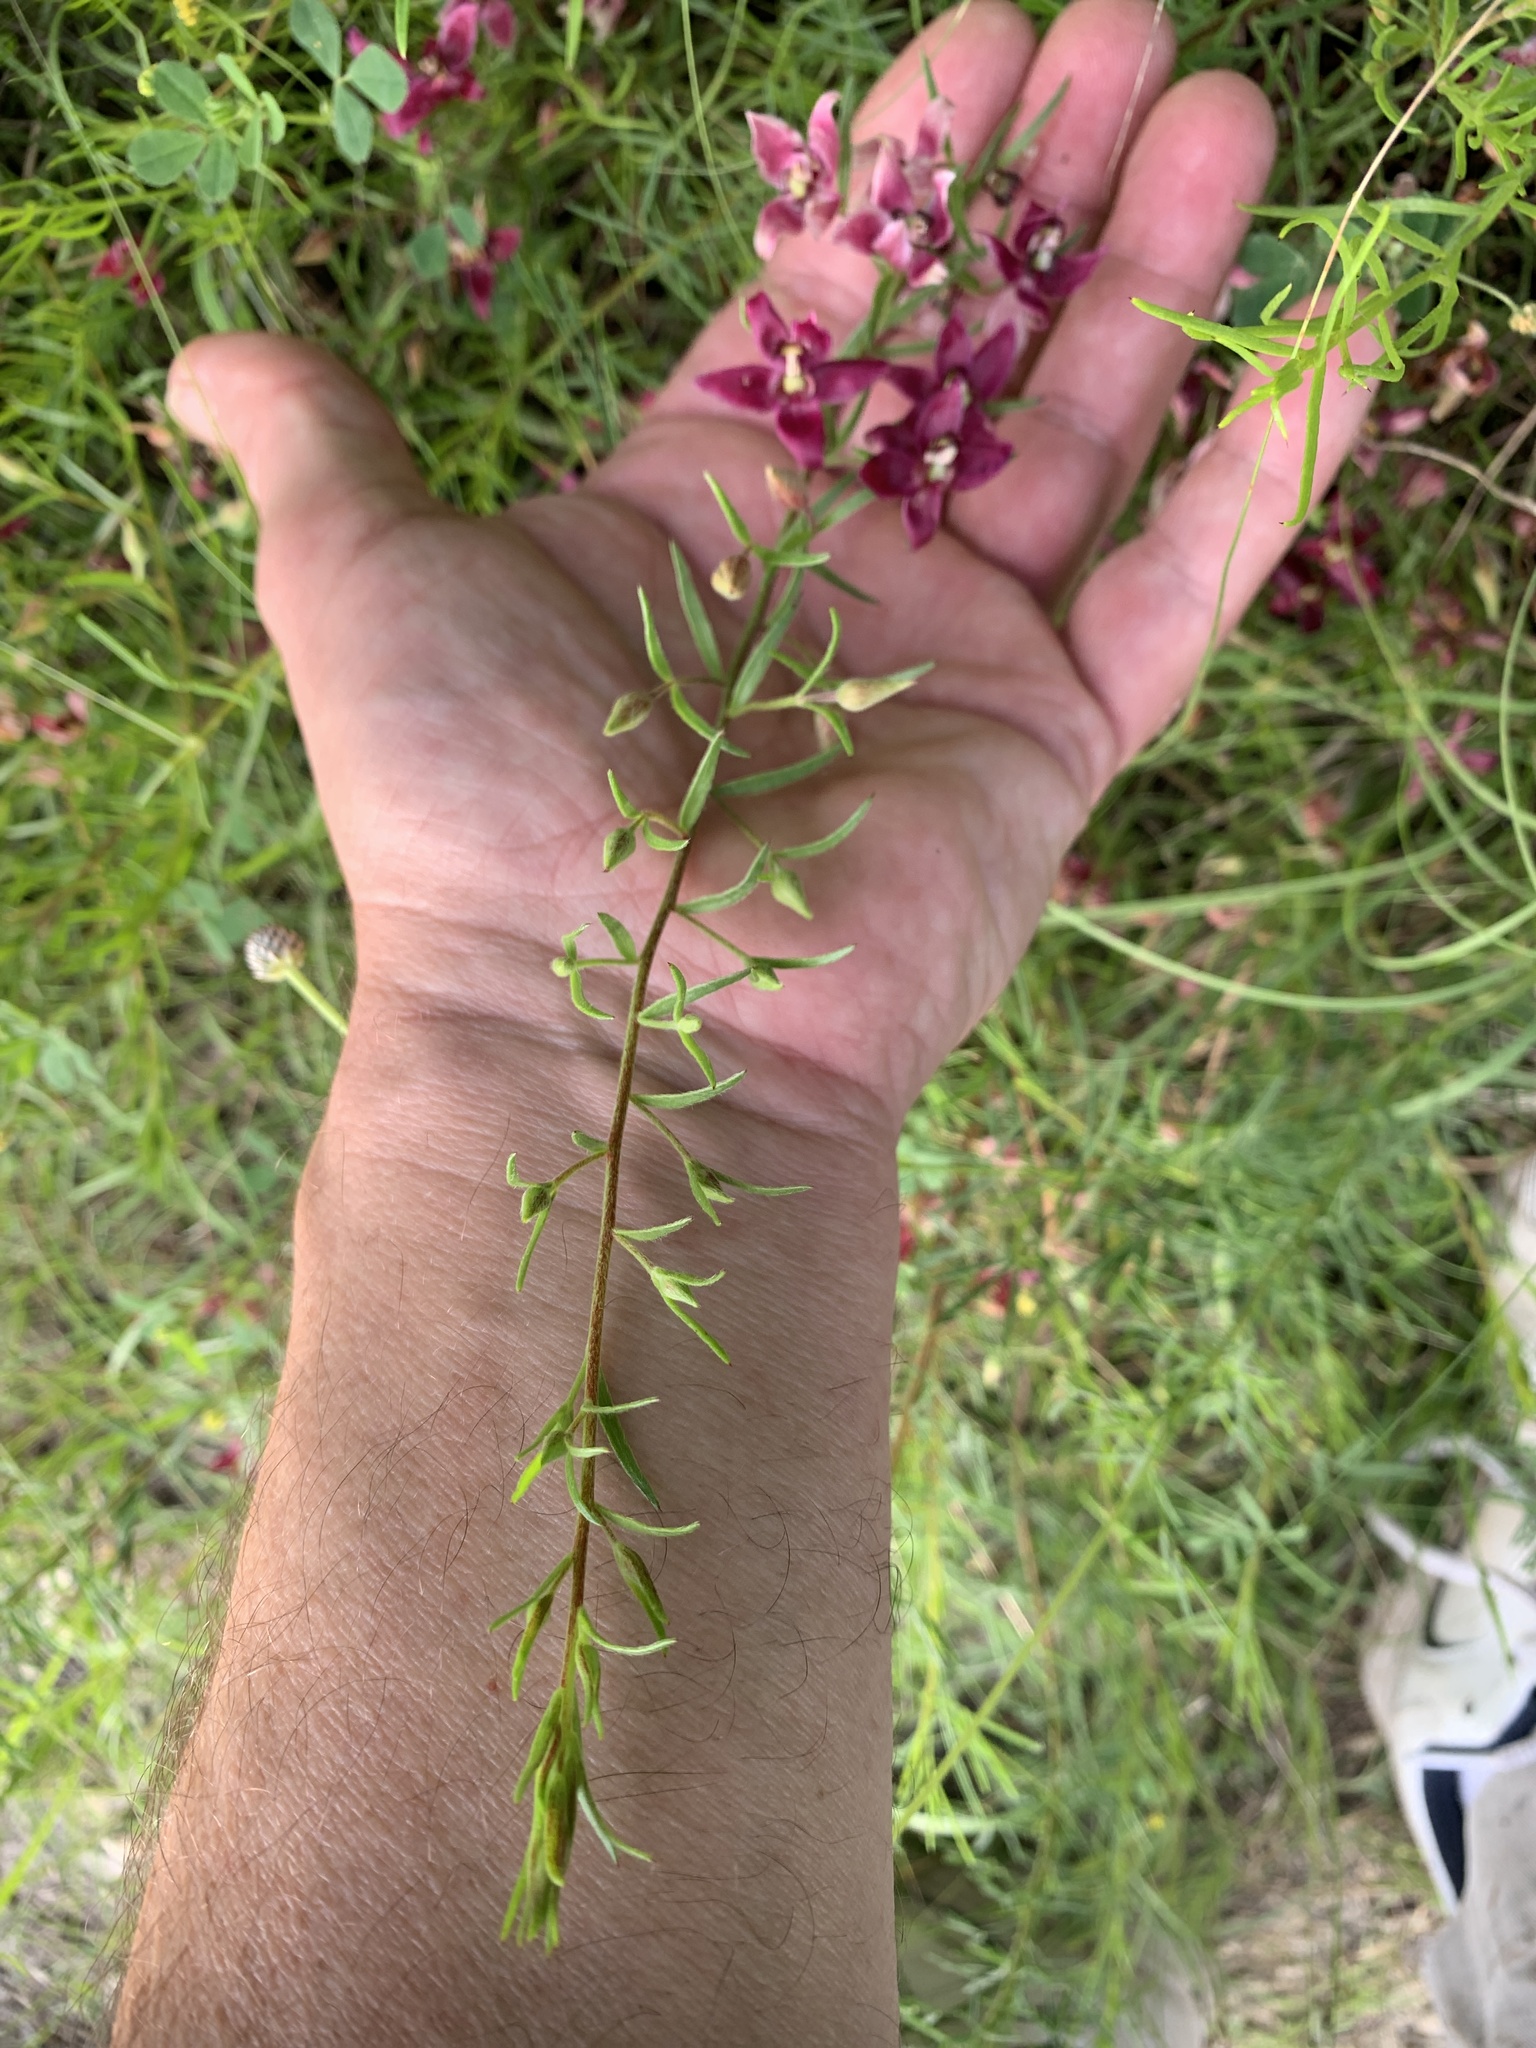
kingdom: Plantae
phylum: Tracheophyta
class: Magnoliopsida
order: Zygophyllales
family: Krameriaceae
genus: Krameria
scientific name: Krameria lanceolata
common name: Ratany
